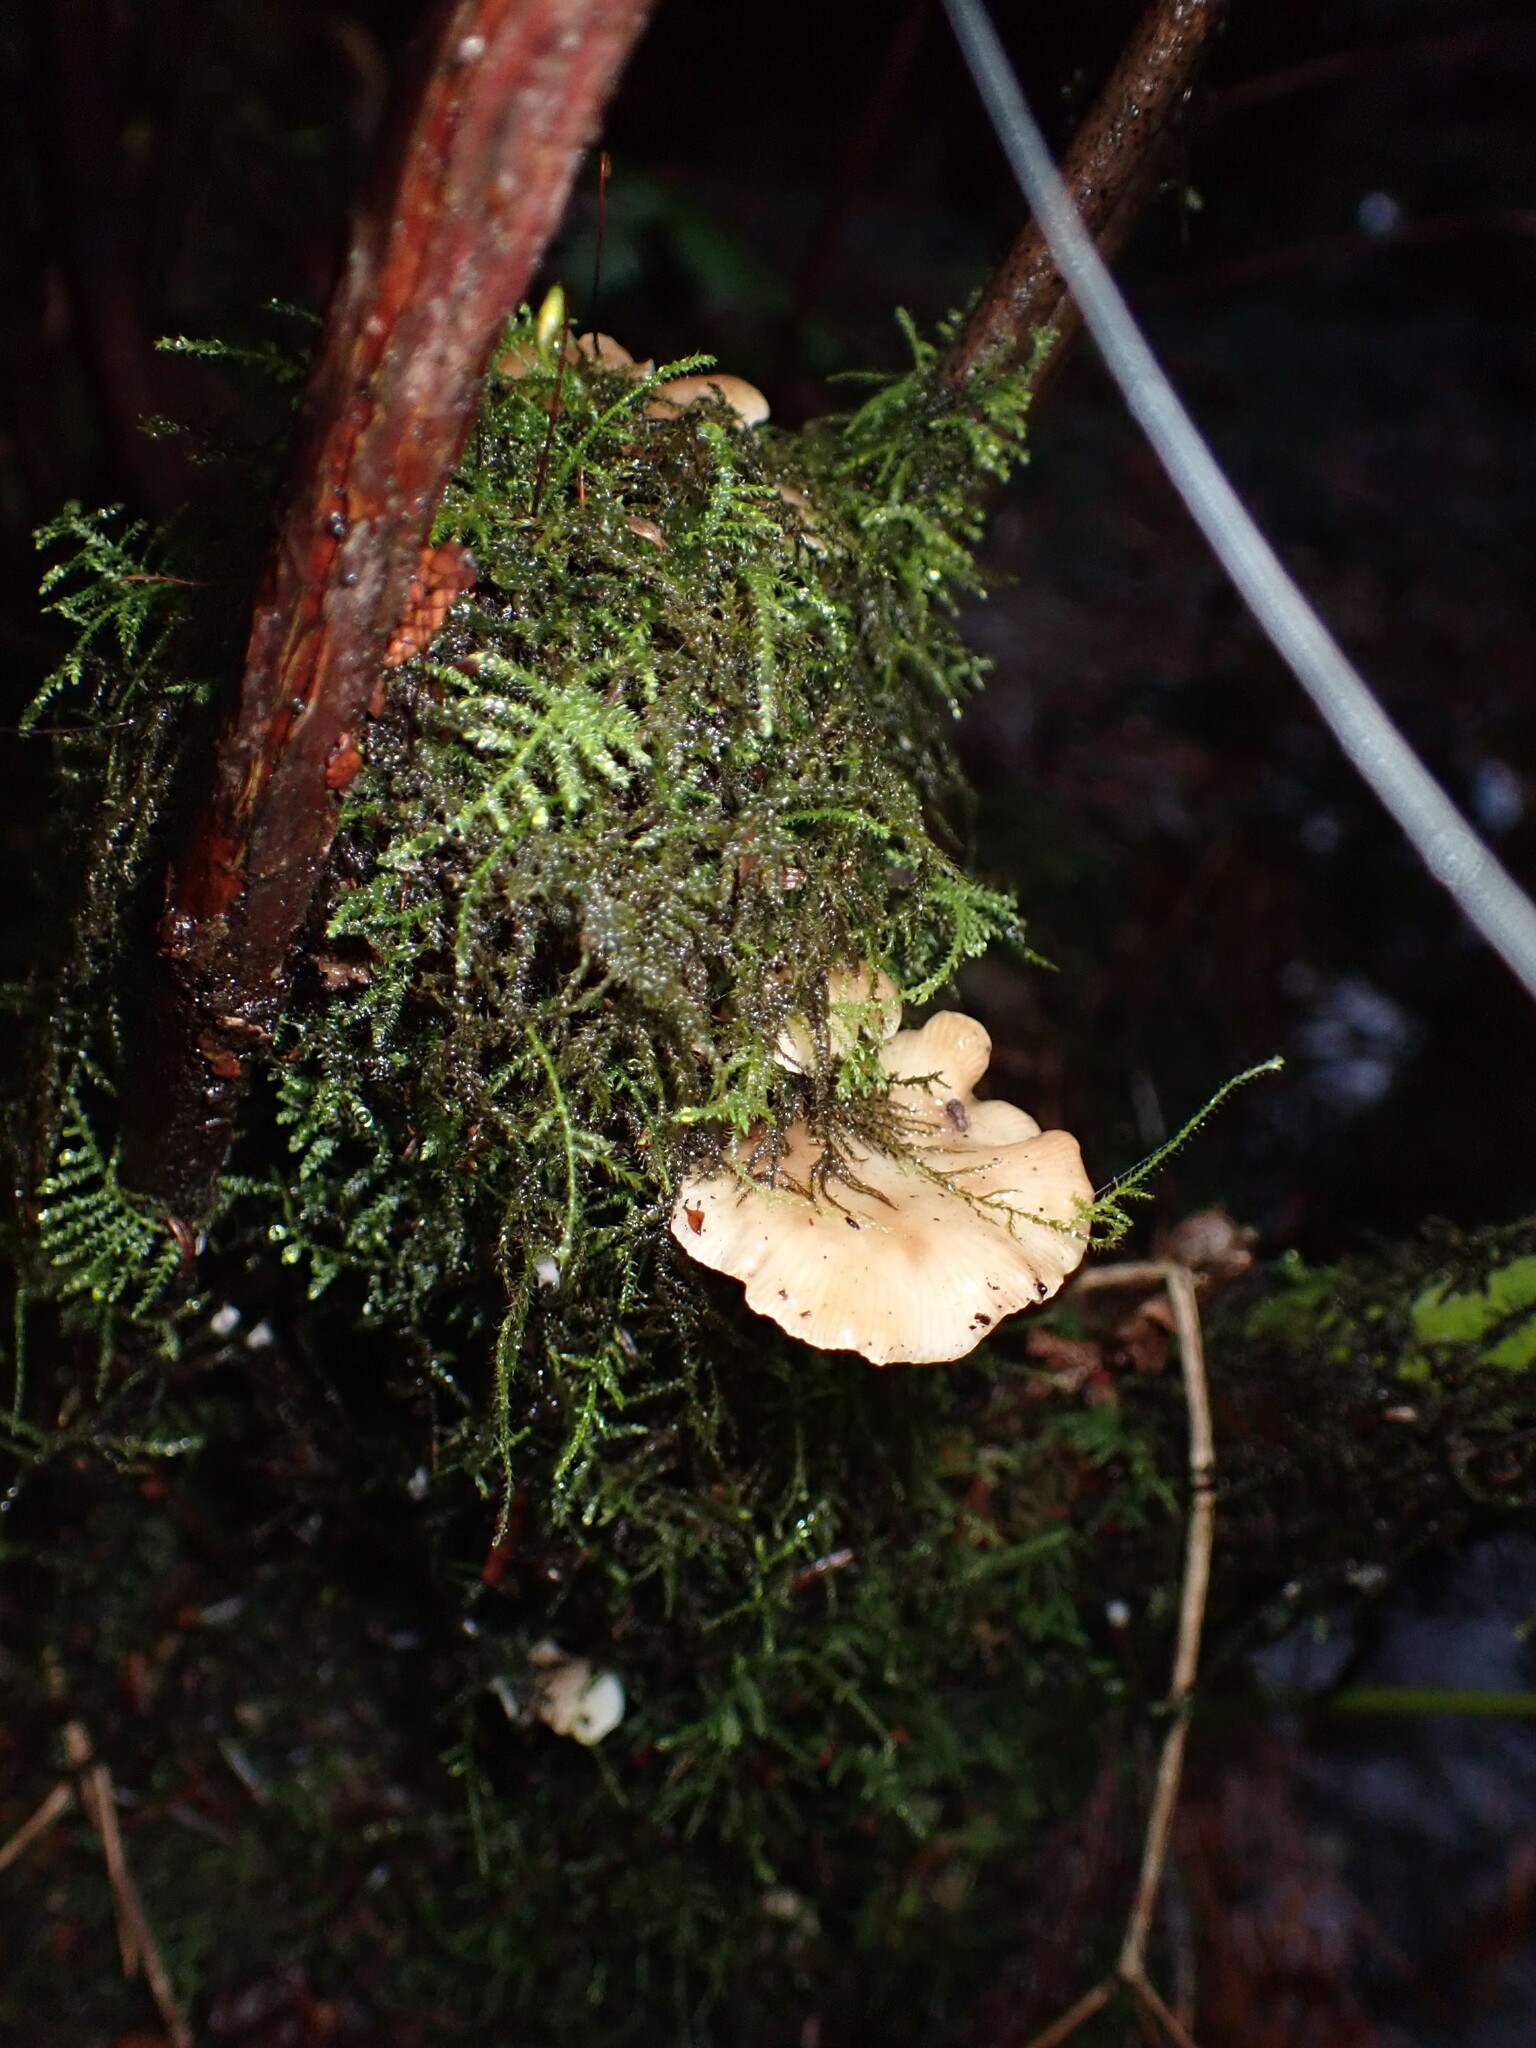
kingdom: Fungi
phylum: Basidiomycota
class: Agaricomycetes
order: Agaricales
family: Mycenaceae
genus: Panellus
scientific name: Panellus longinquus
